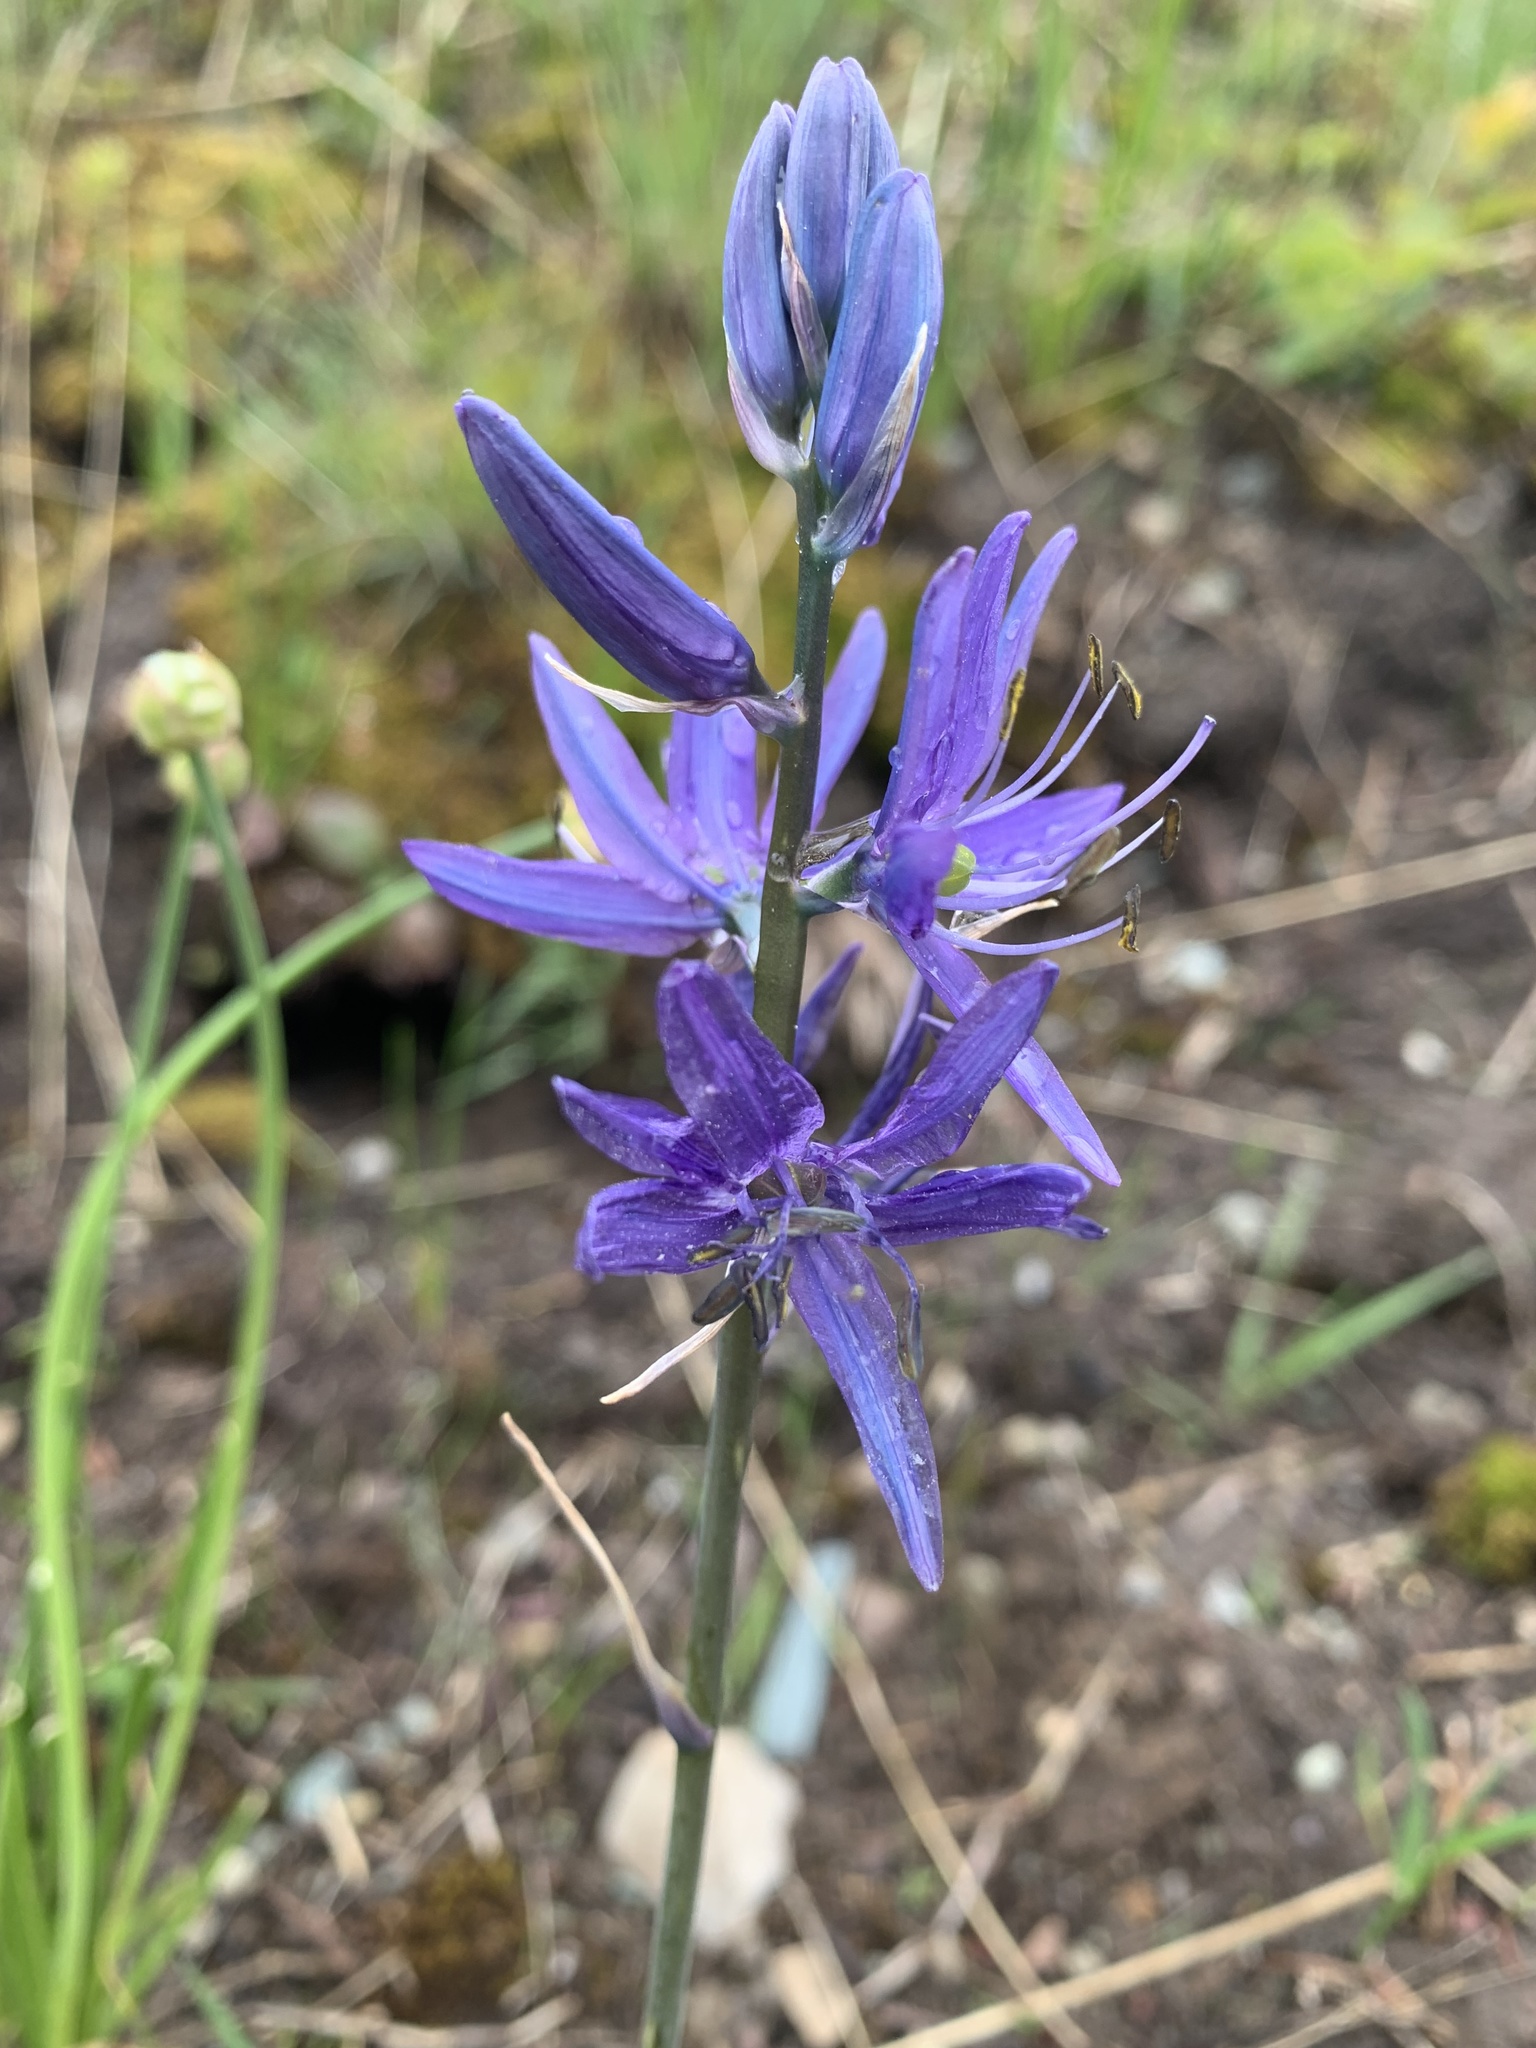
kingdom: Plantae
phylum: Tracheophyta
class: Liliopsida
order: Asparagales
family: Asparagaceae
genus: Camassia
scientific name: Camassia quamash
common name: Common camas
